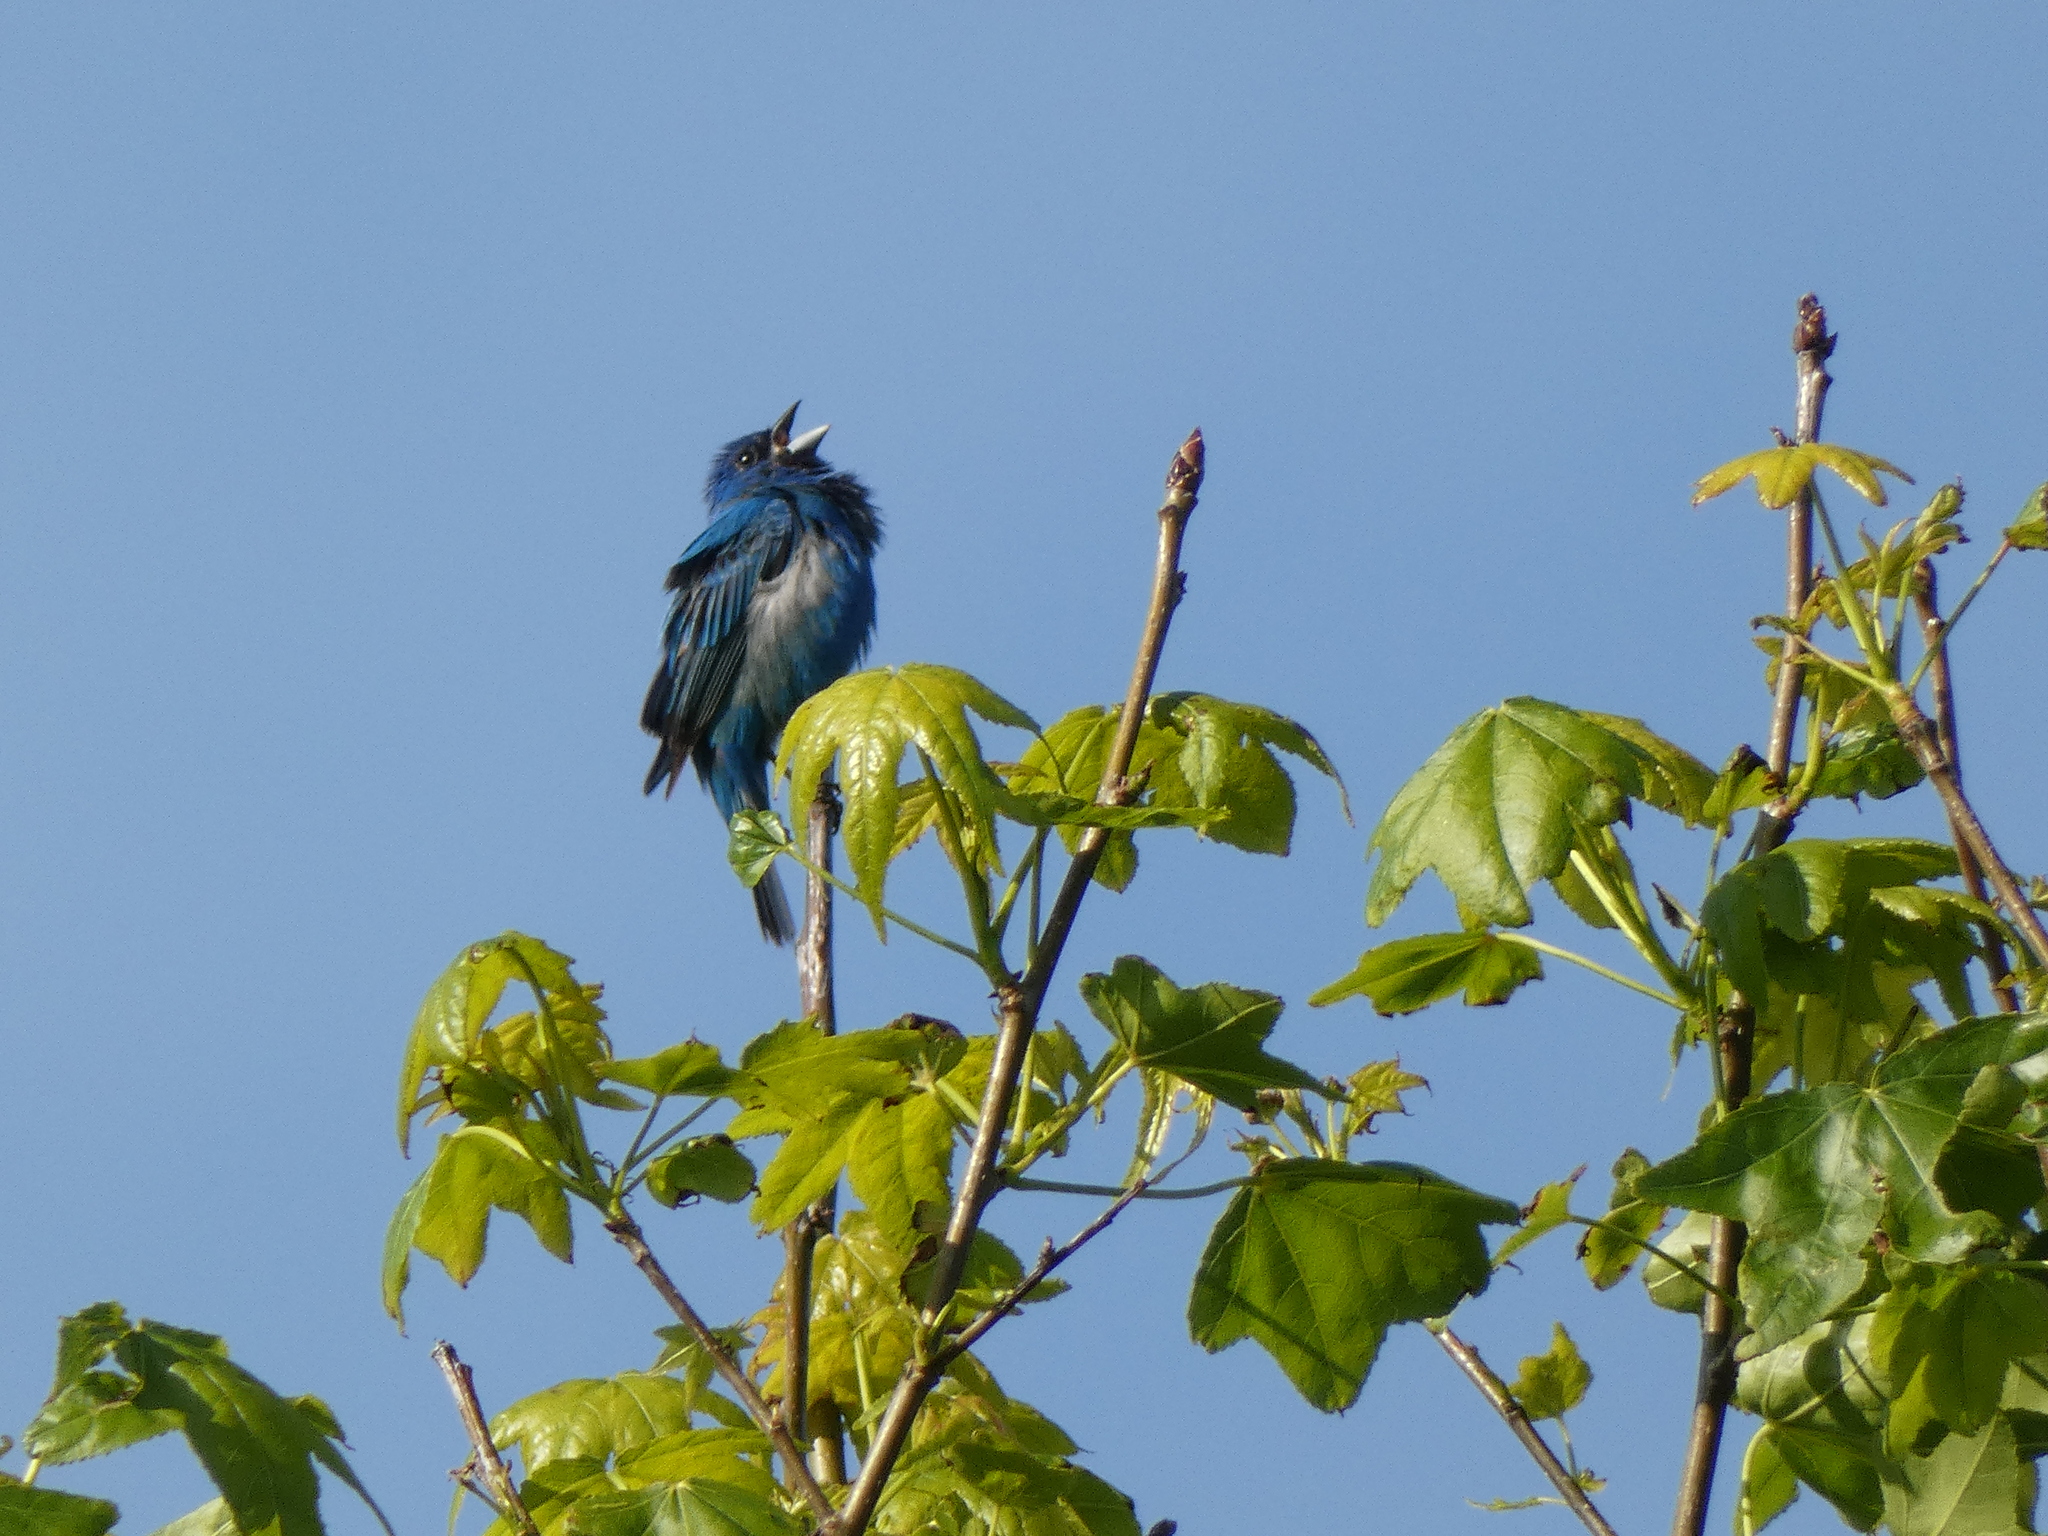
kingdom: Animalia
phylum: Chordata
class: Aves
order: Passeriformes
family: Cardinalidae
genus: Passerina
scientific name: Passerina cyanea
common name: Indigo bunting
